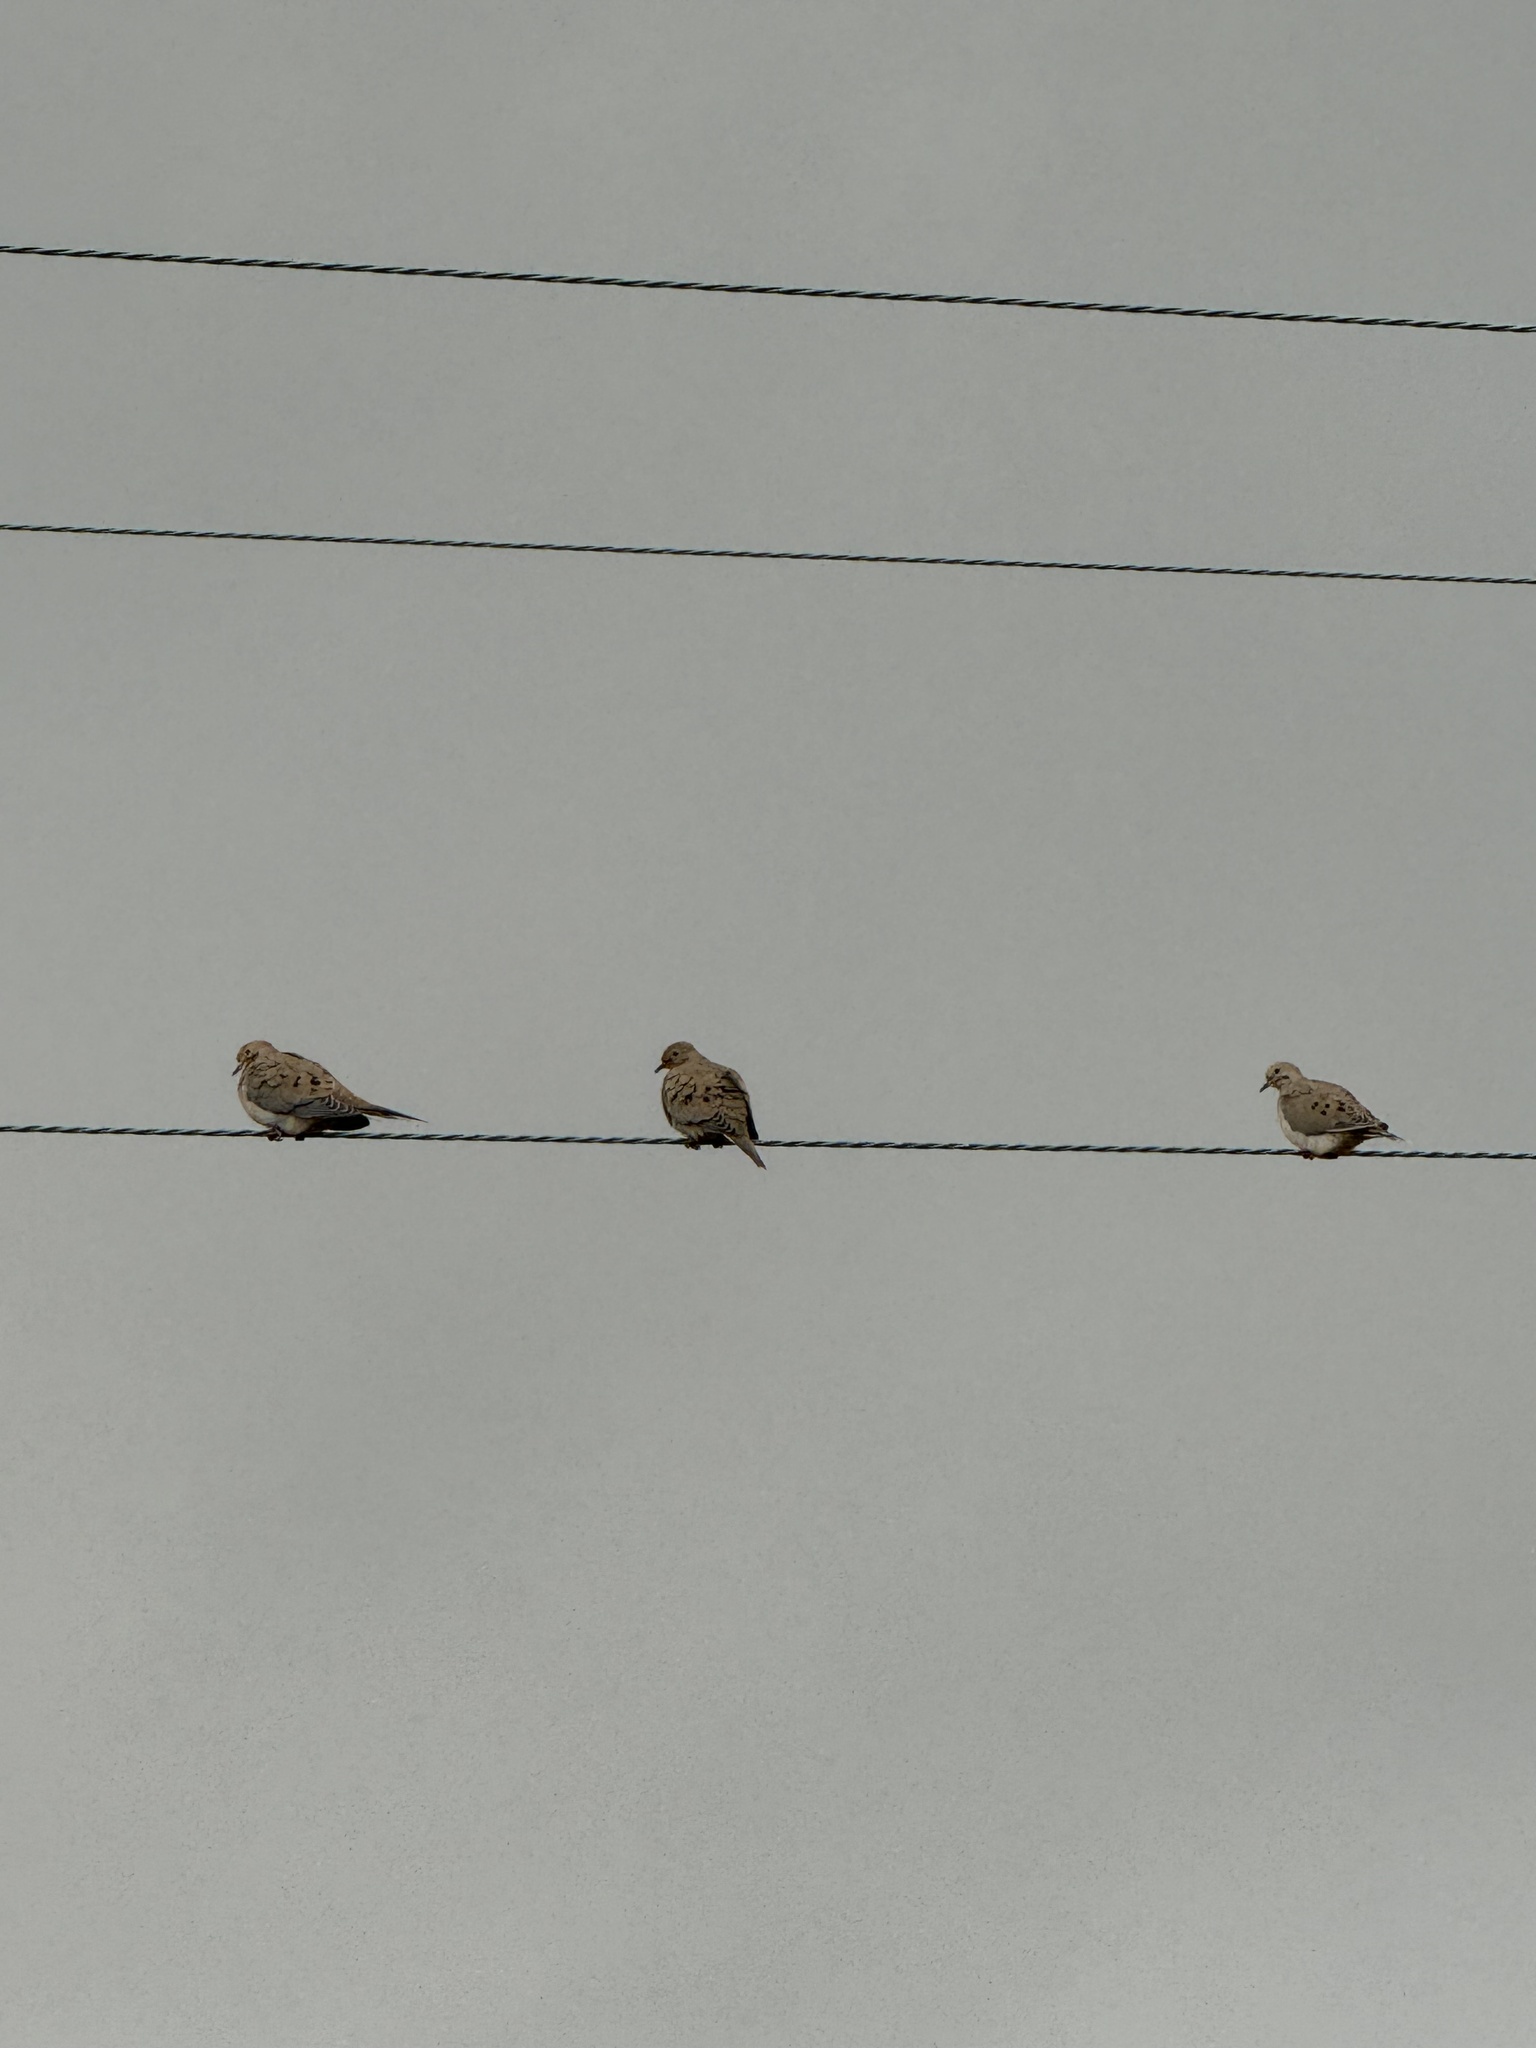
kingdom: Animalia
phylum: Chordata
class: Aves
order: Columbiformes
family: Columbidae
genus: Zenaida
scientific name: Zenaida macroura
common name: Mourning dove
